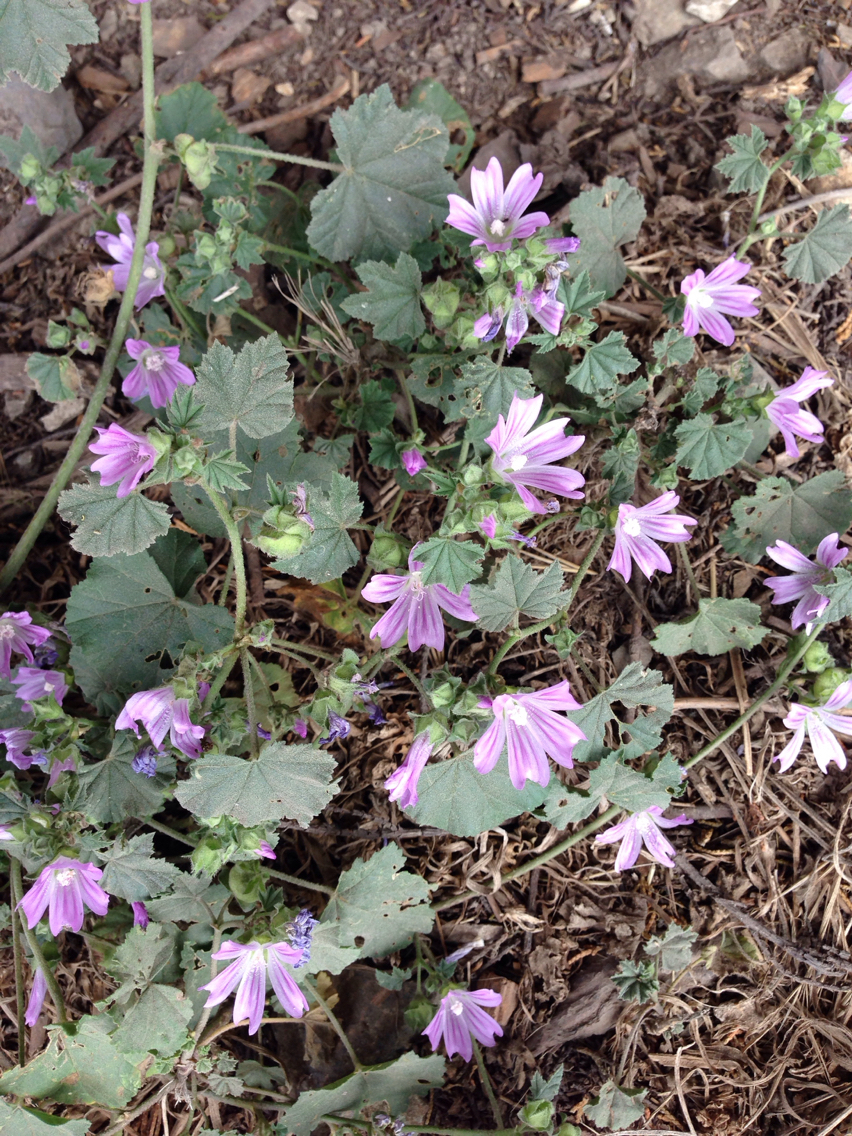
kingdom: Plantae
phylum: Tracheophyta
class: Magnoliopsida
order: Malvales
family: Malvaceae
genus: Malva
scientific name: Malva multiflora
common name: Cheeseweed
